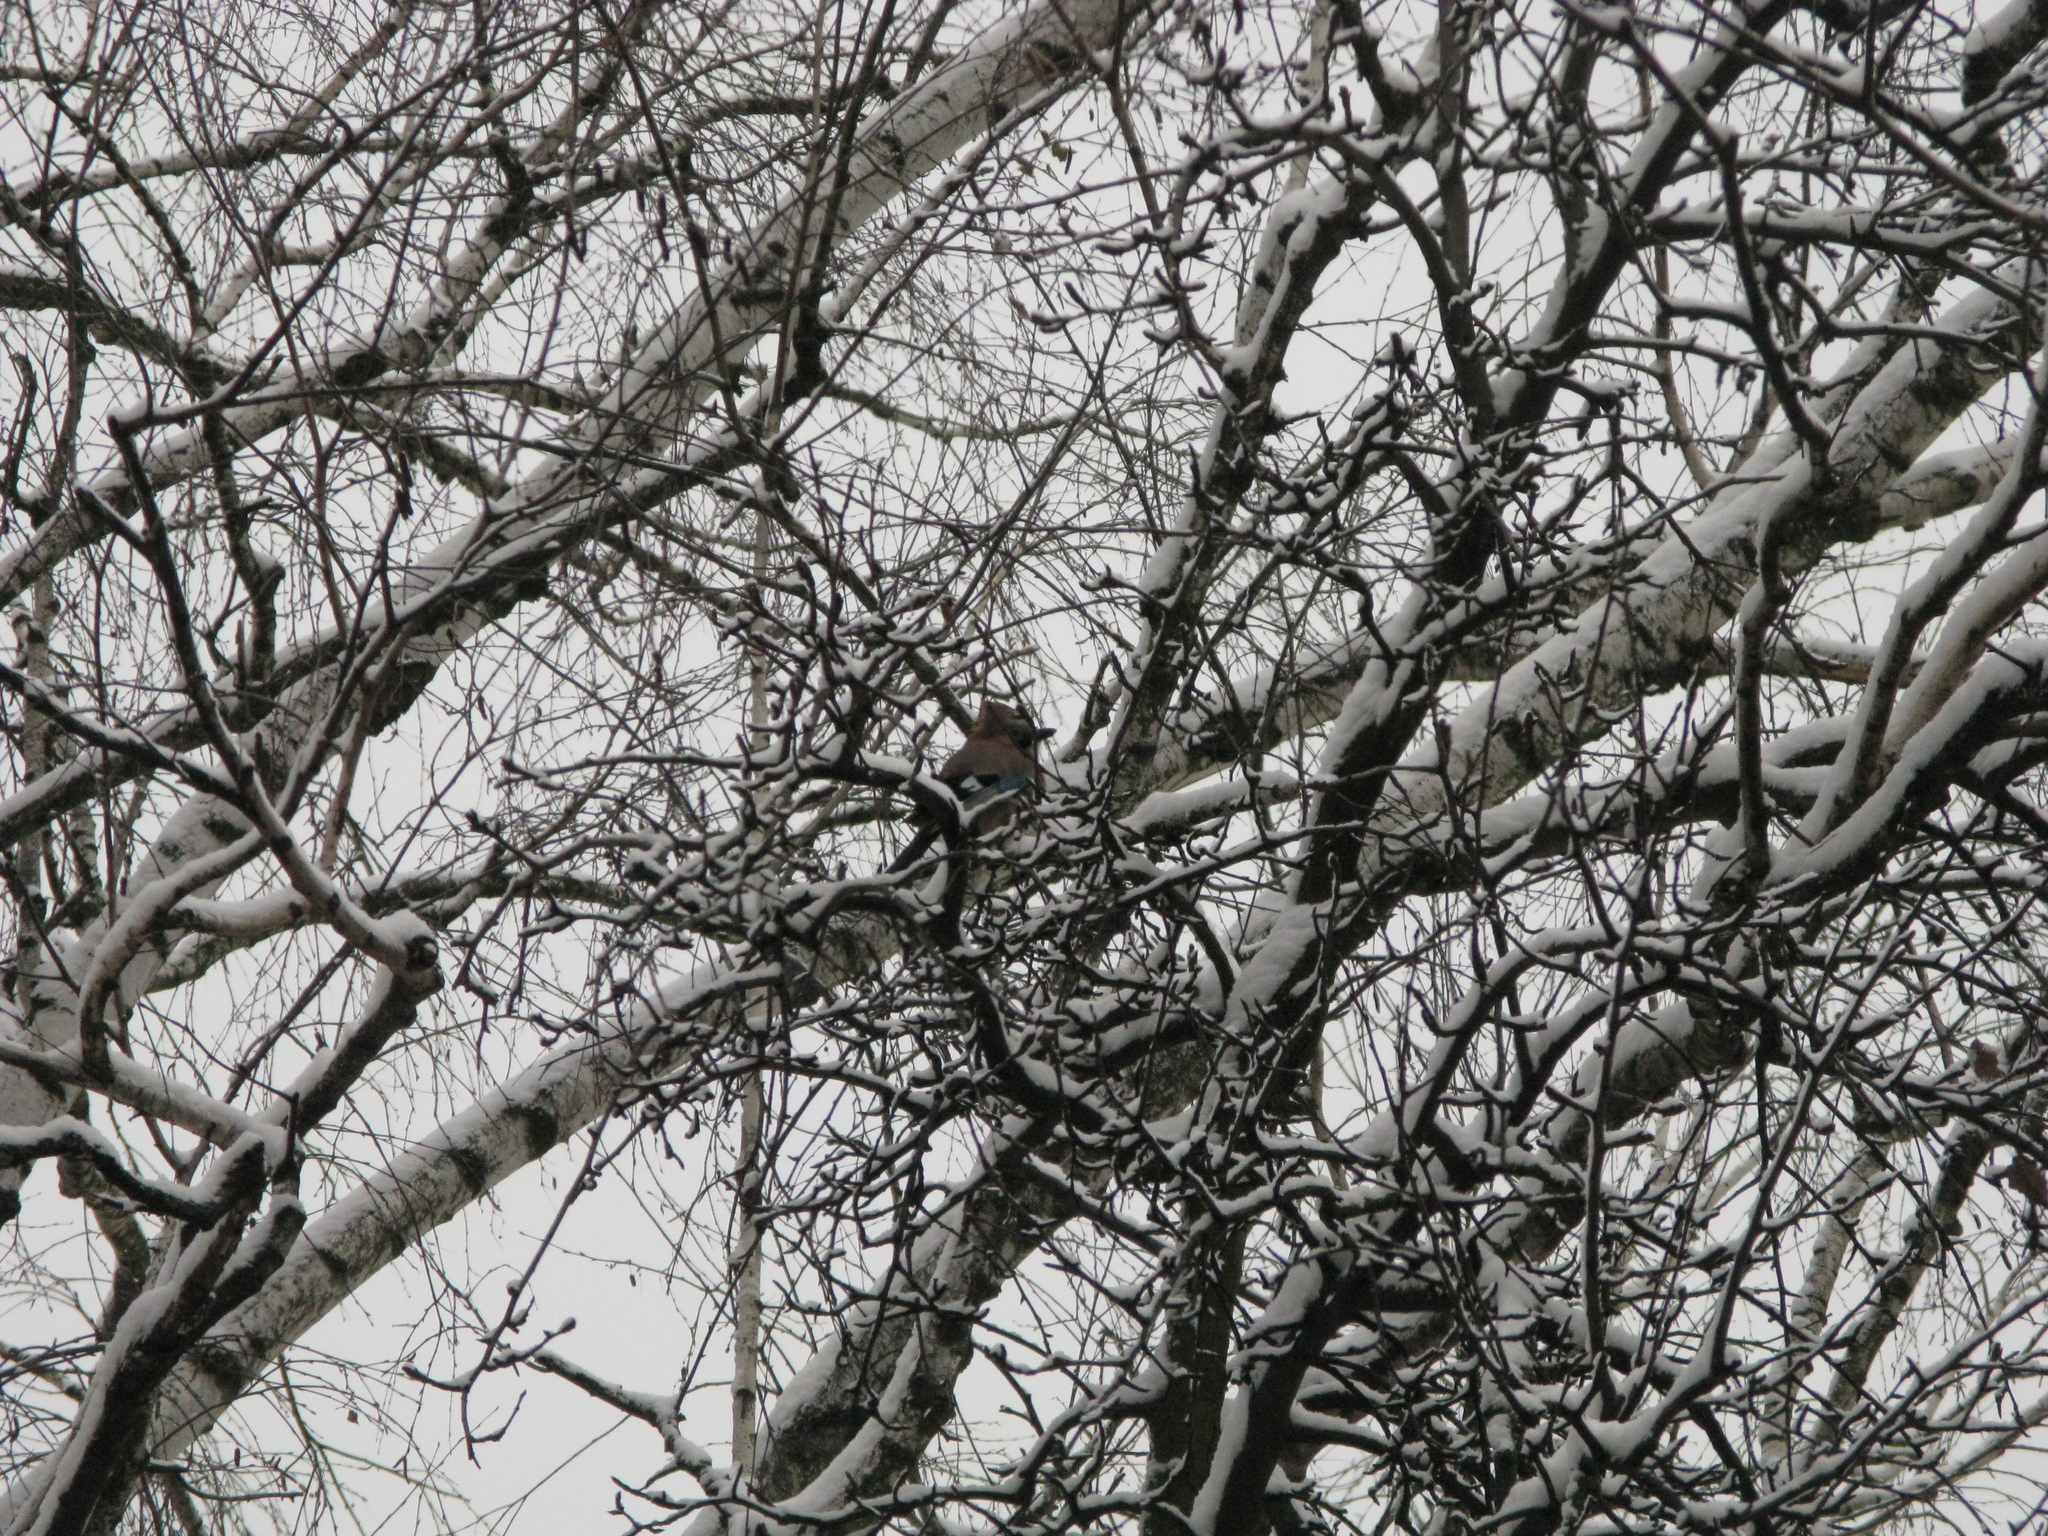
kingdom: Animalia
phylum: Chordata
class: Aves
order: Passeriformes
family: Corvidae
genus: Garrulus
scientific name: Garrulus glandarius
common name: Eurasian jay
